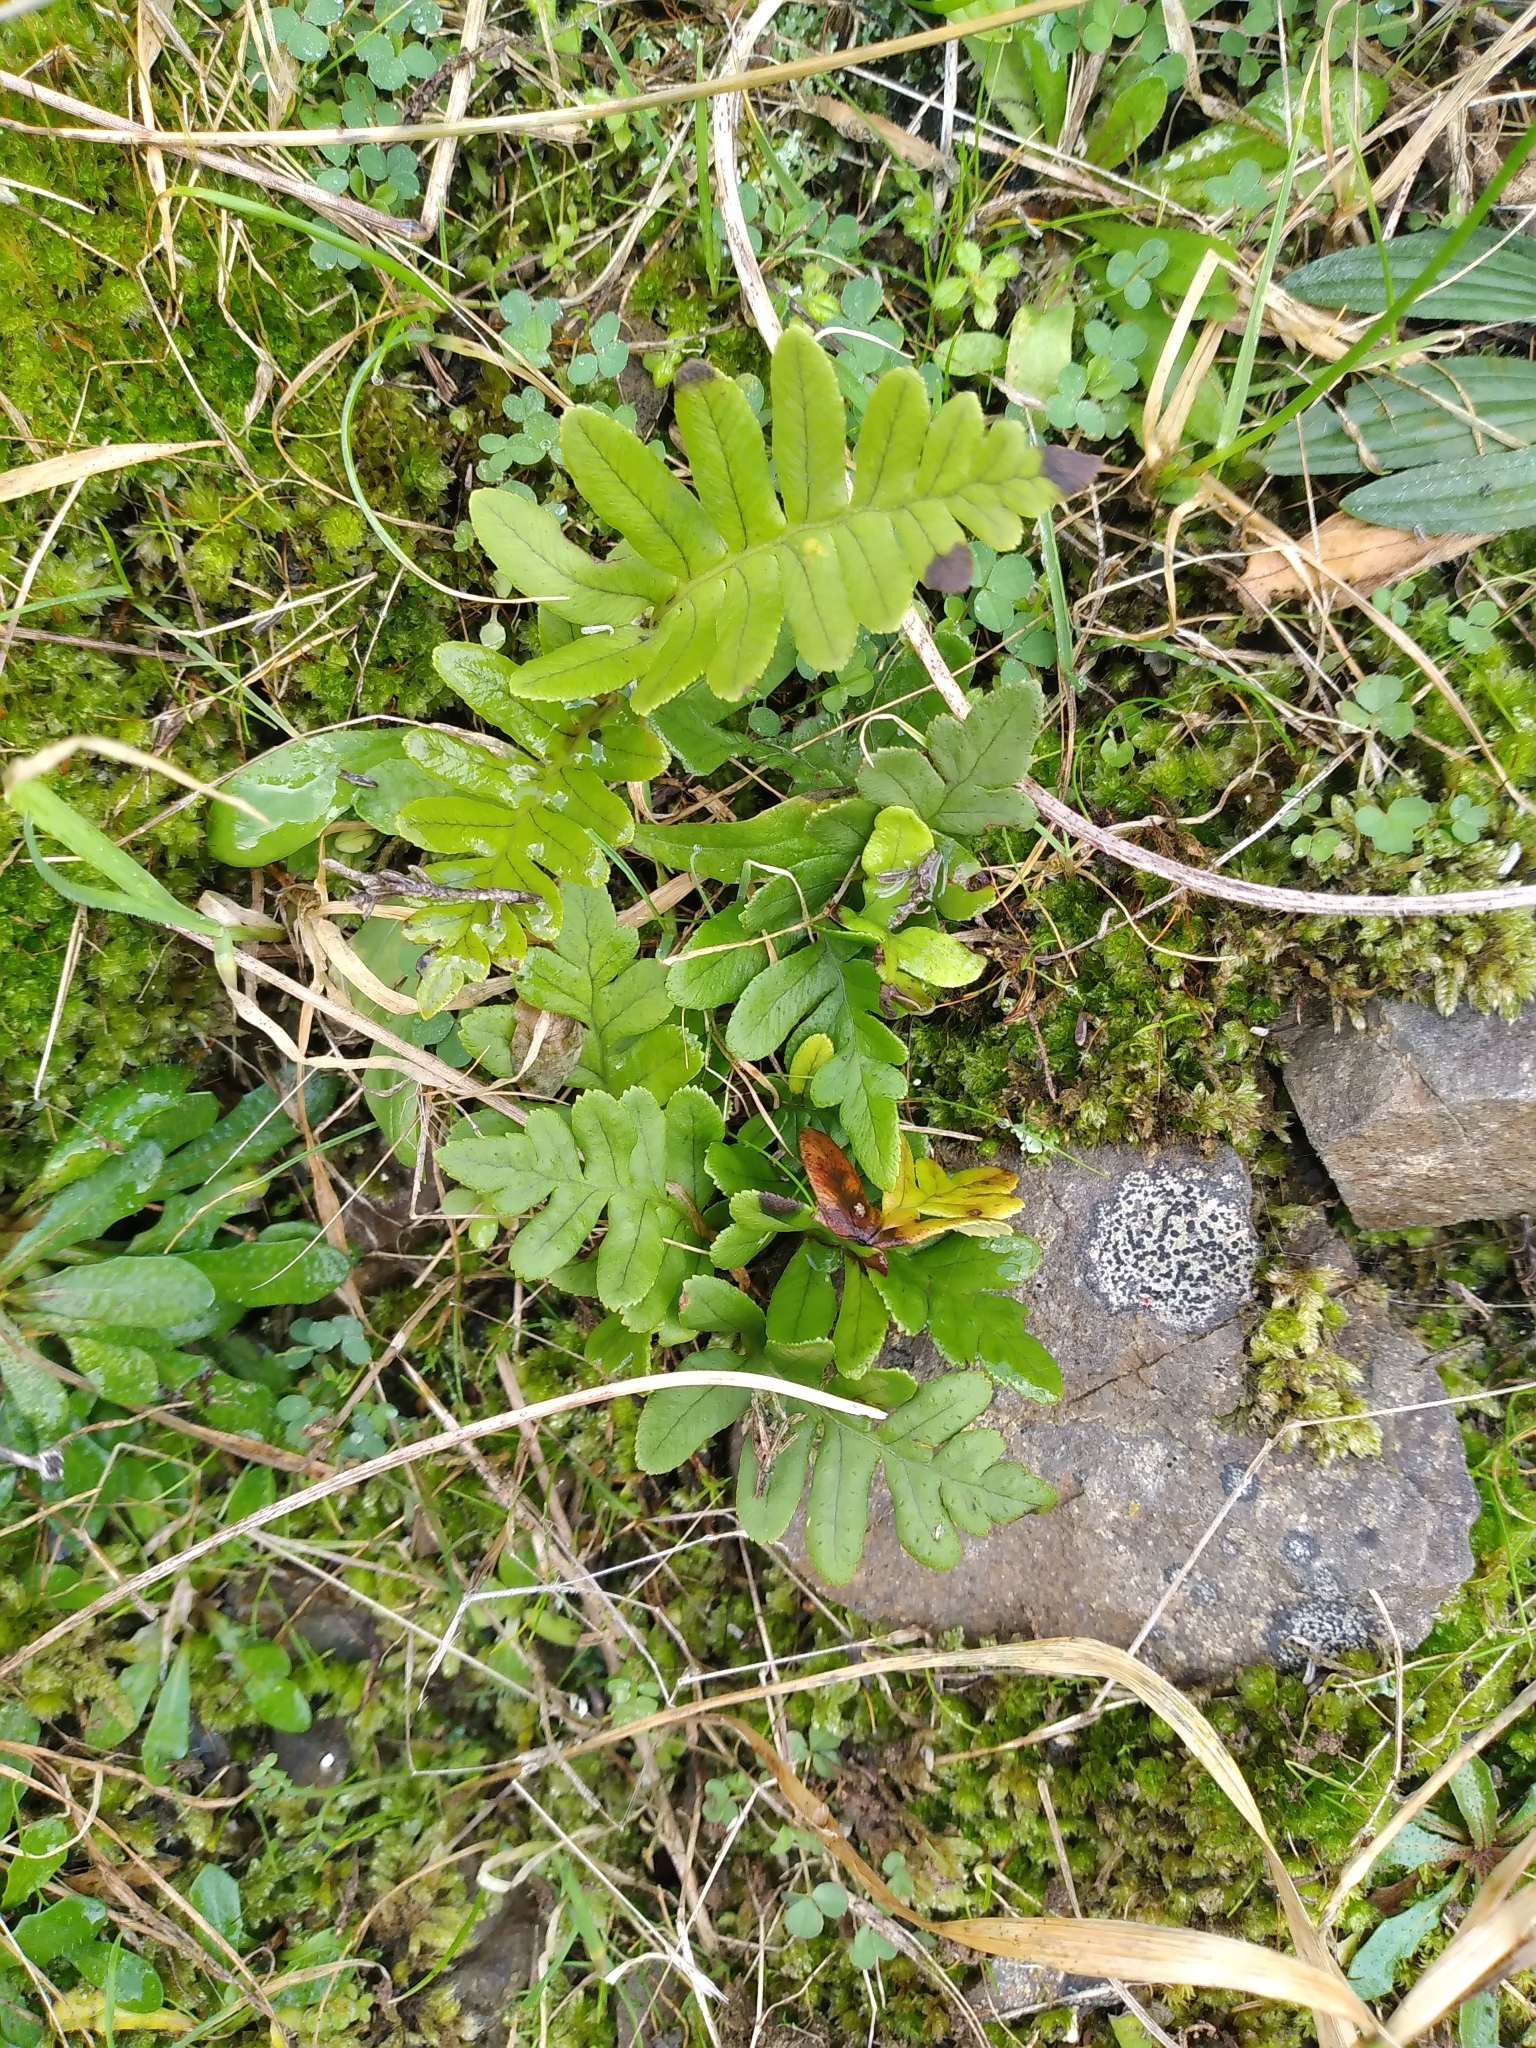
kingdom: Plantae
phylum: Tracheophyta
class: Polypodiopsida
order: Polypodiales
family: Polypodiaceae
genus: Polypodium
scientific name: Polypodium vulgare
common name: Common polypody
